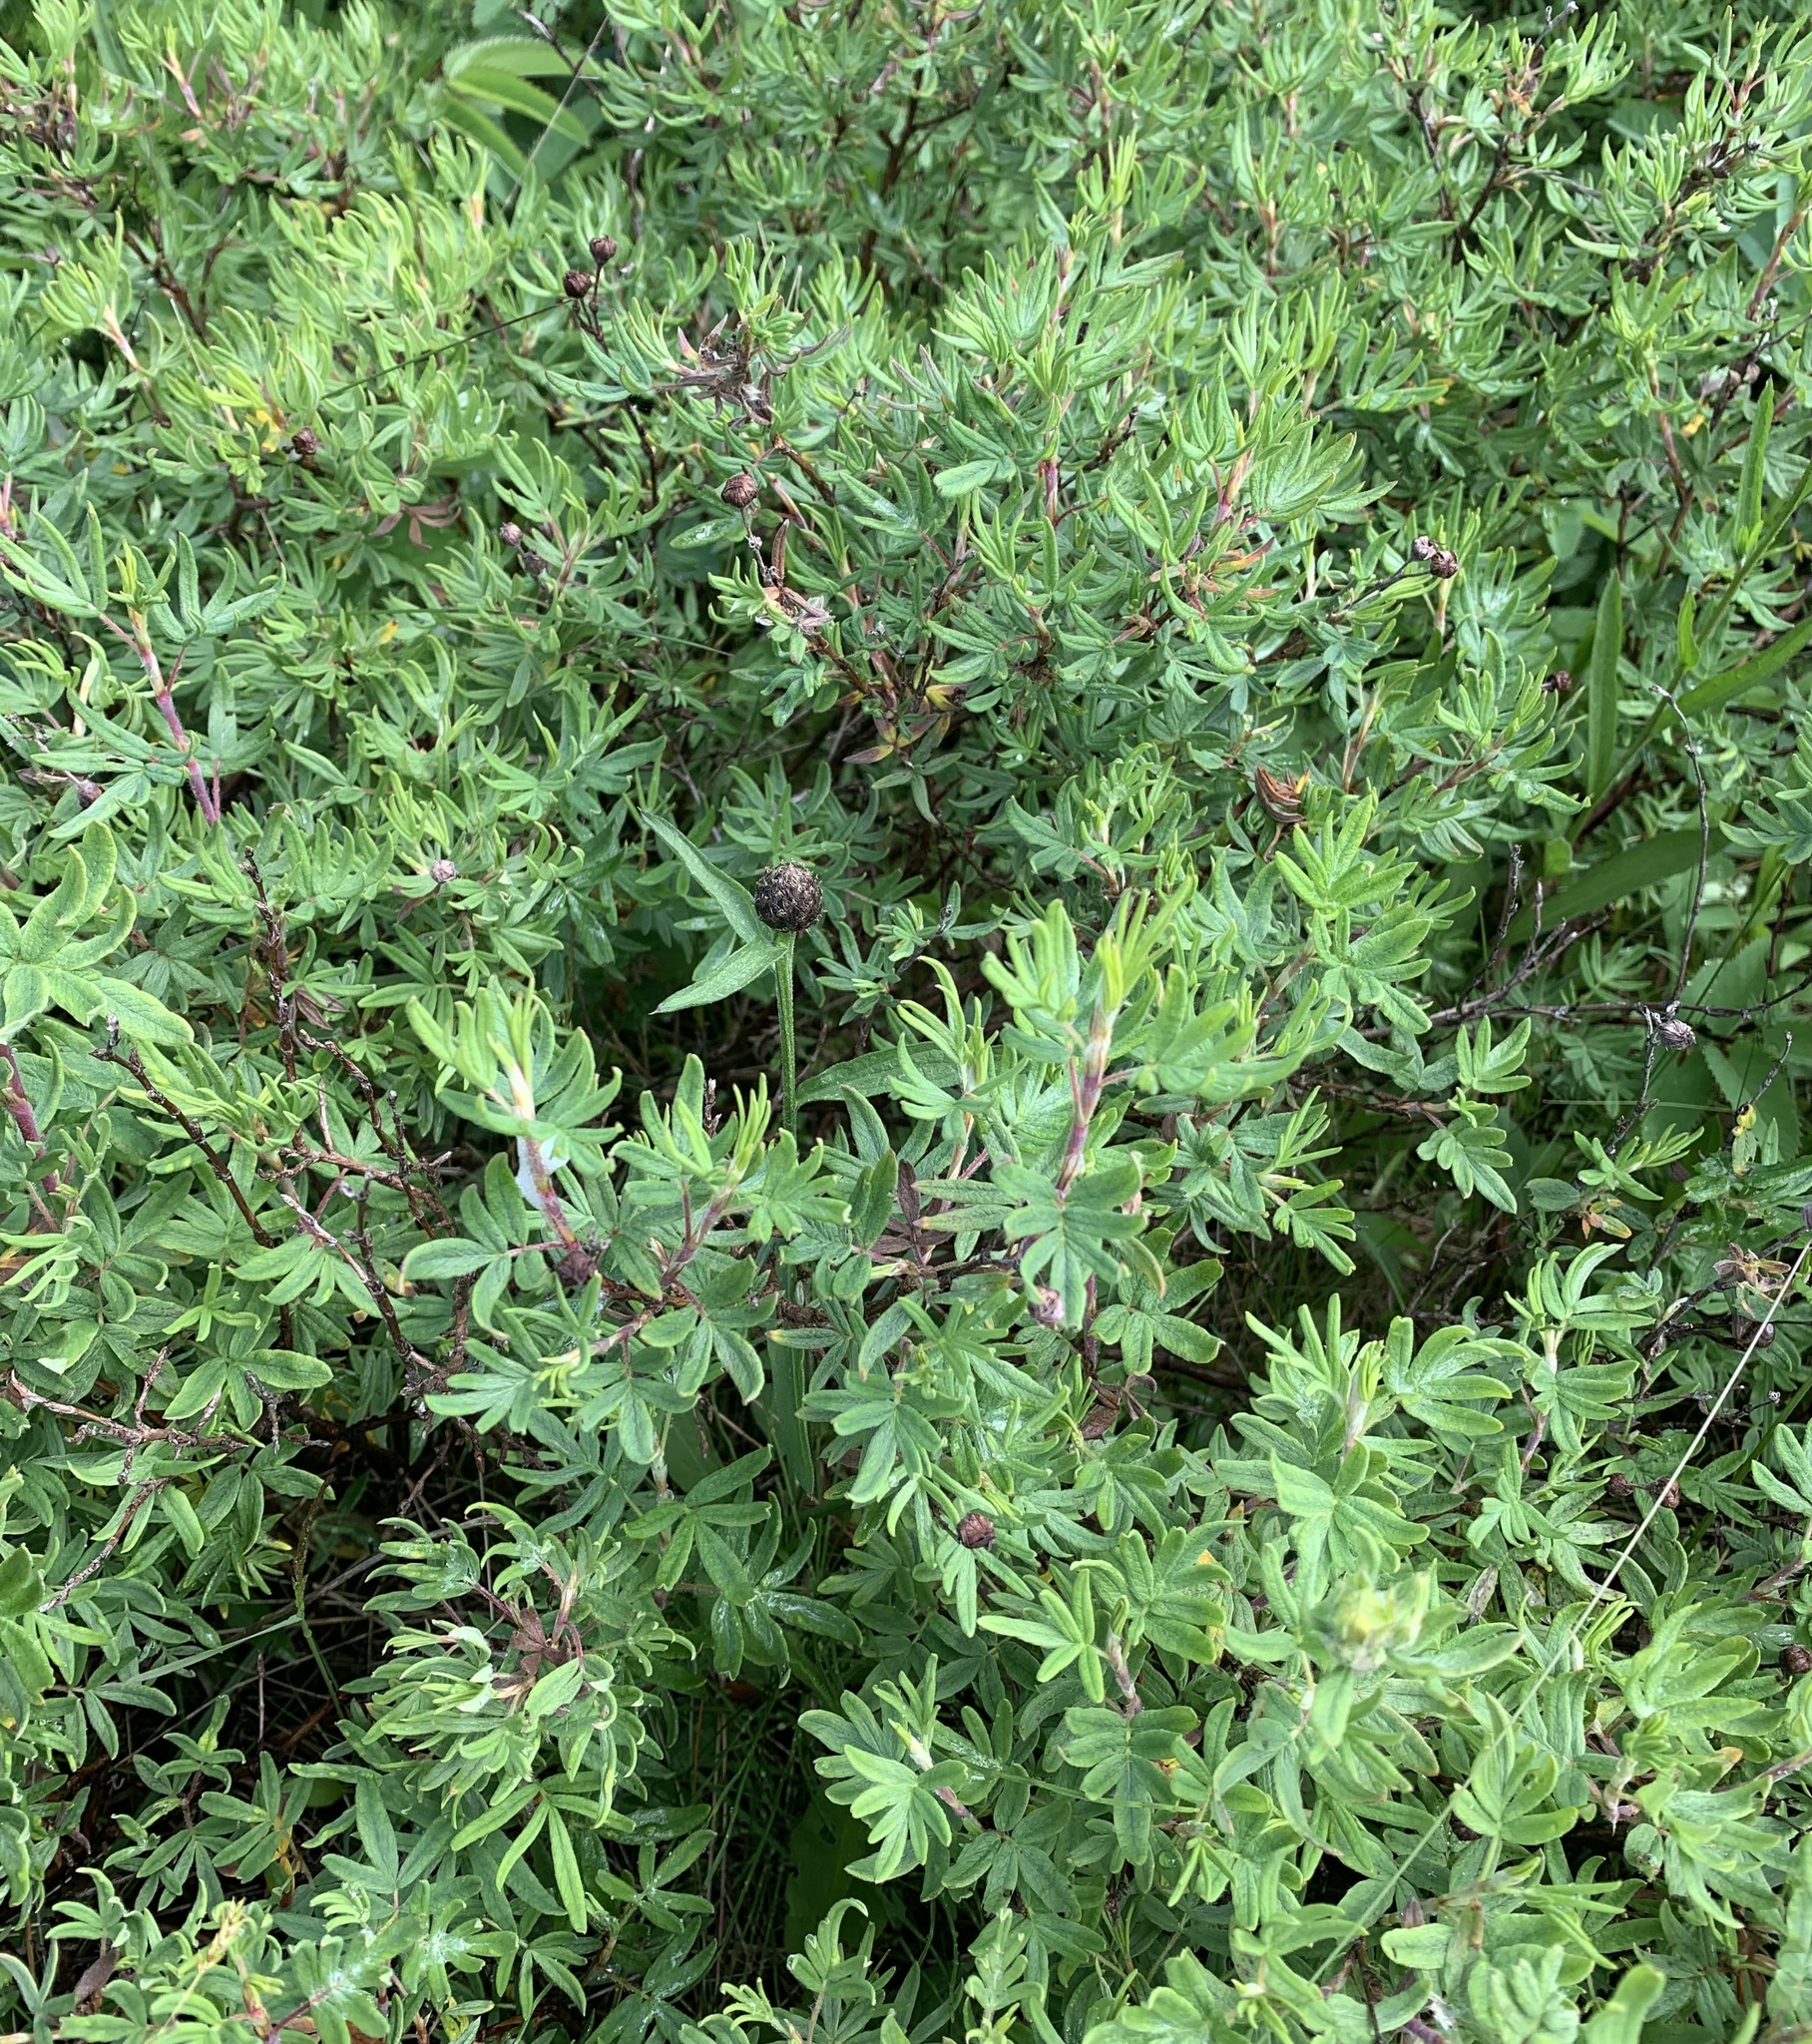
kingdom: Plantae
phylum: Tracheophyta
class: Magnoliopsida
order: Rosales
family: Rosaceae
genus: Dasiphora
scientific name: Dasiphora fruticosa
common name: Shrubby cinquefoil
